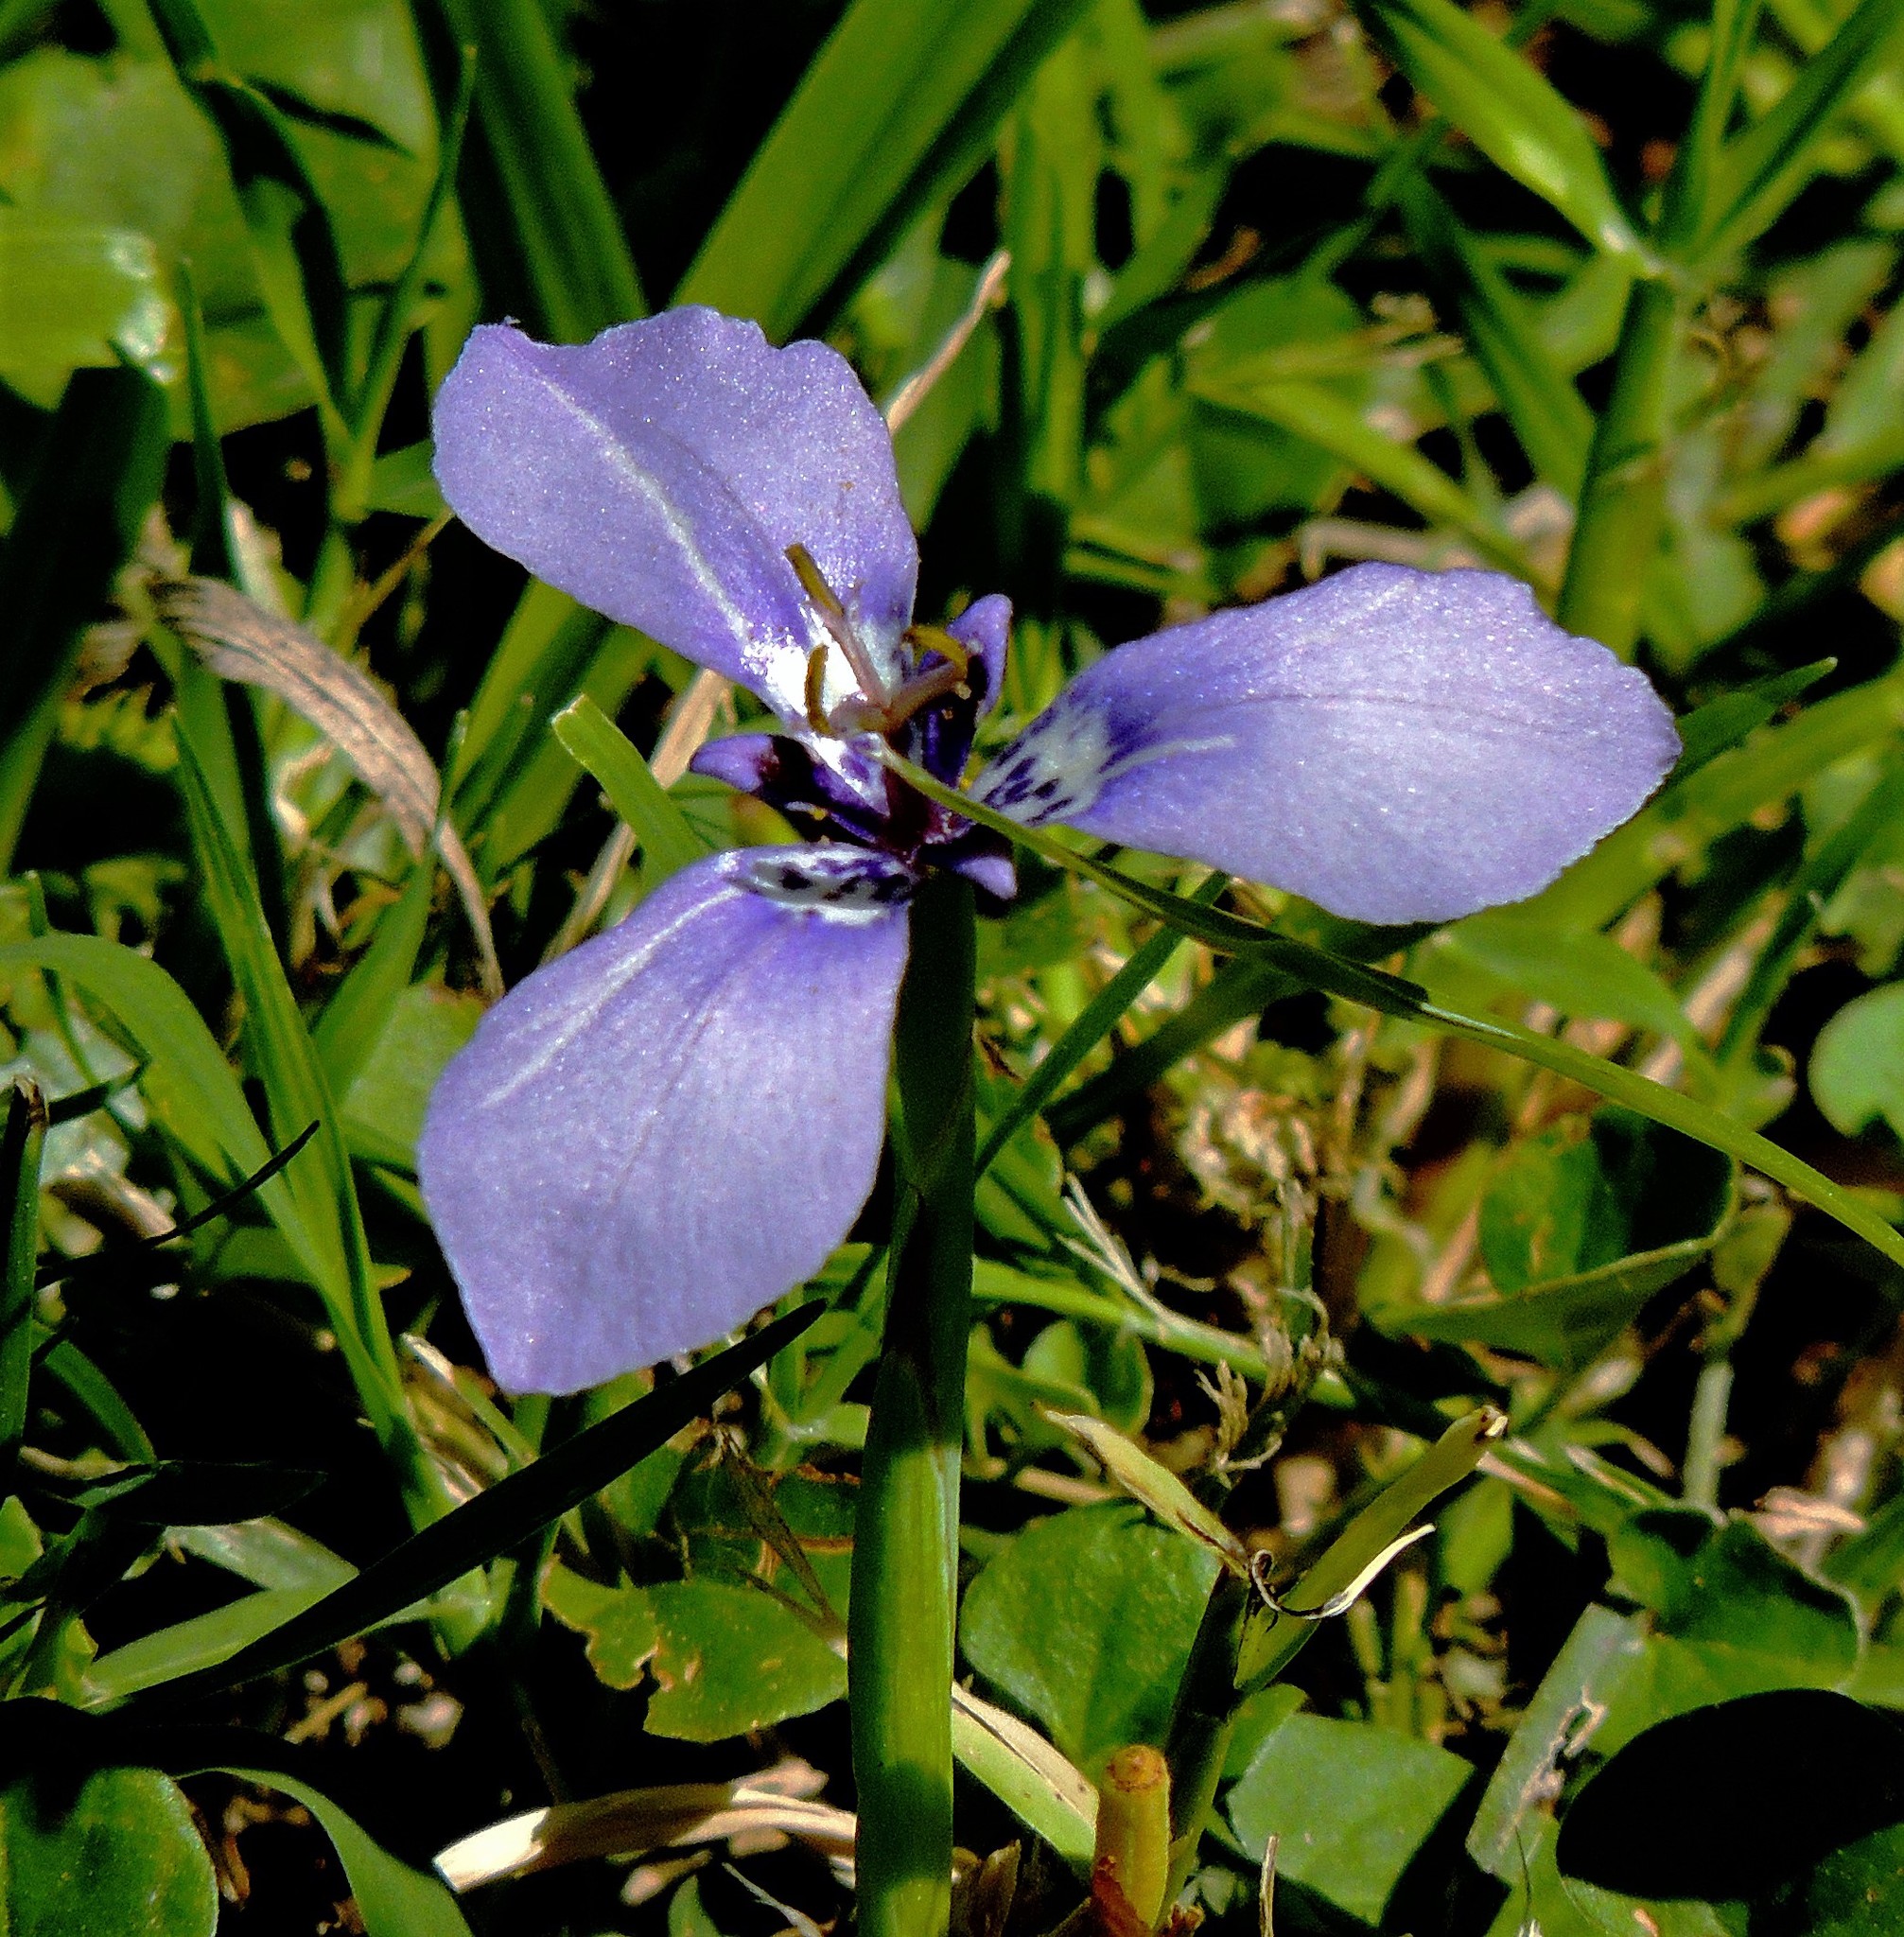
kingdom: Plantae
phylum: Tracheophyta
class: Liliopsida
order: Asparagales
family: Iridaceae
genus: Herbertia
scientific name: Herbertia lahue
